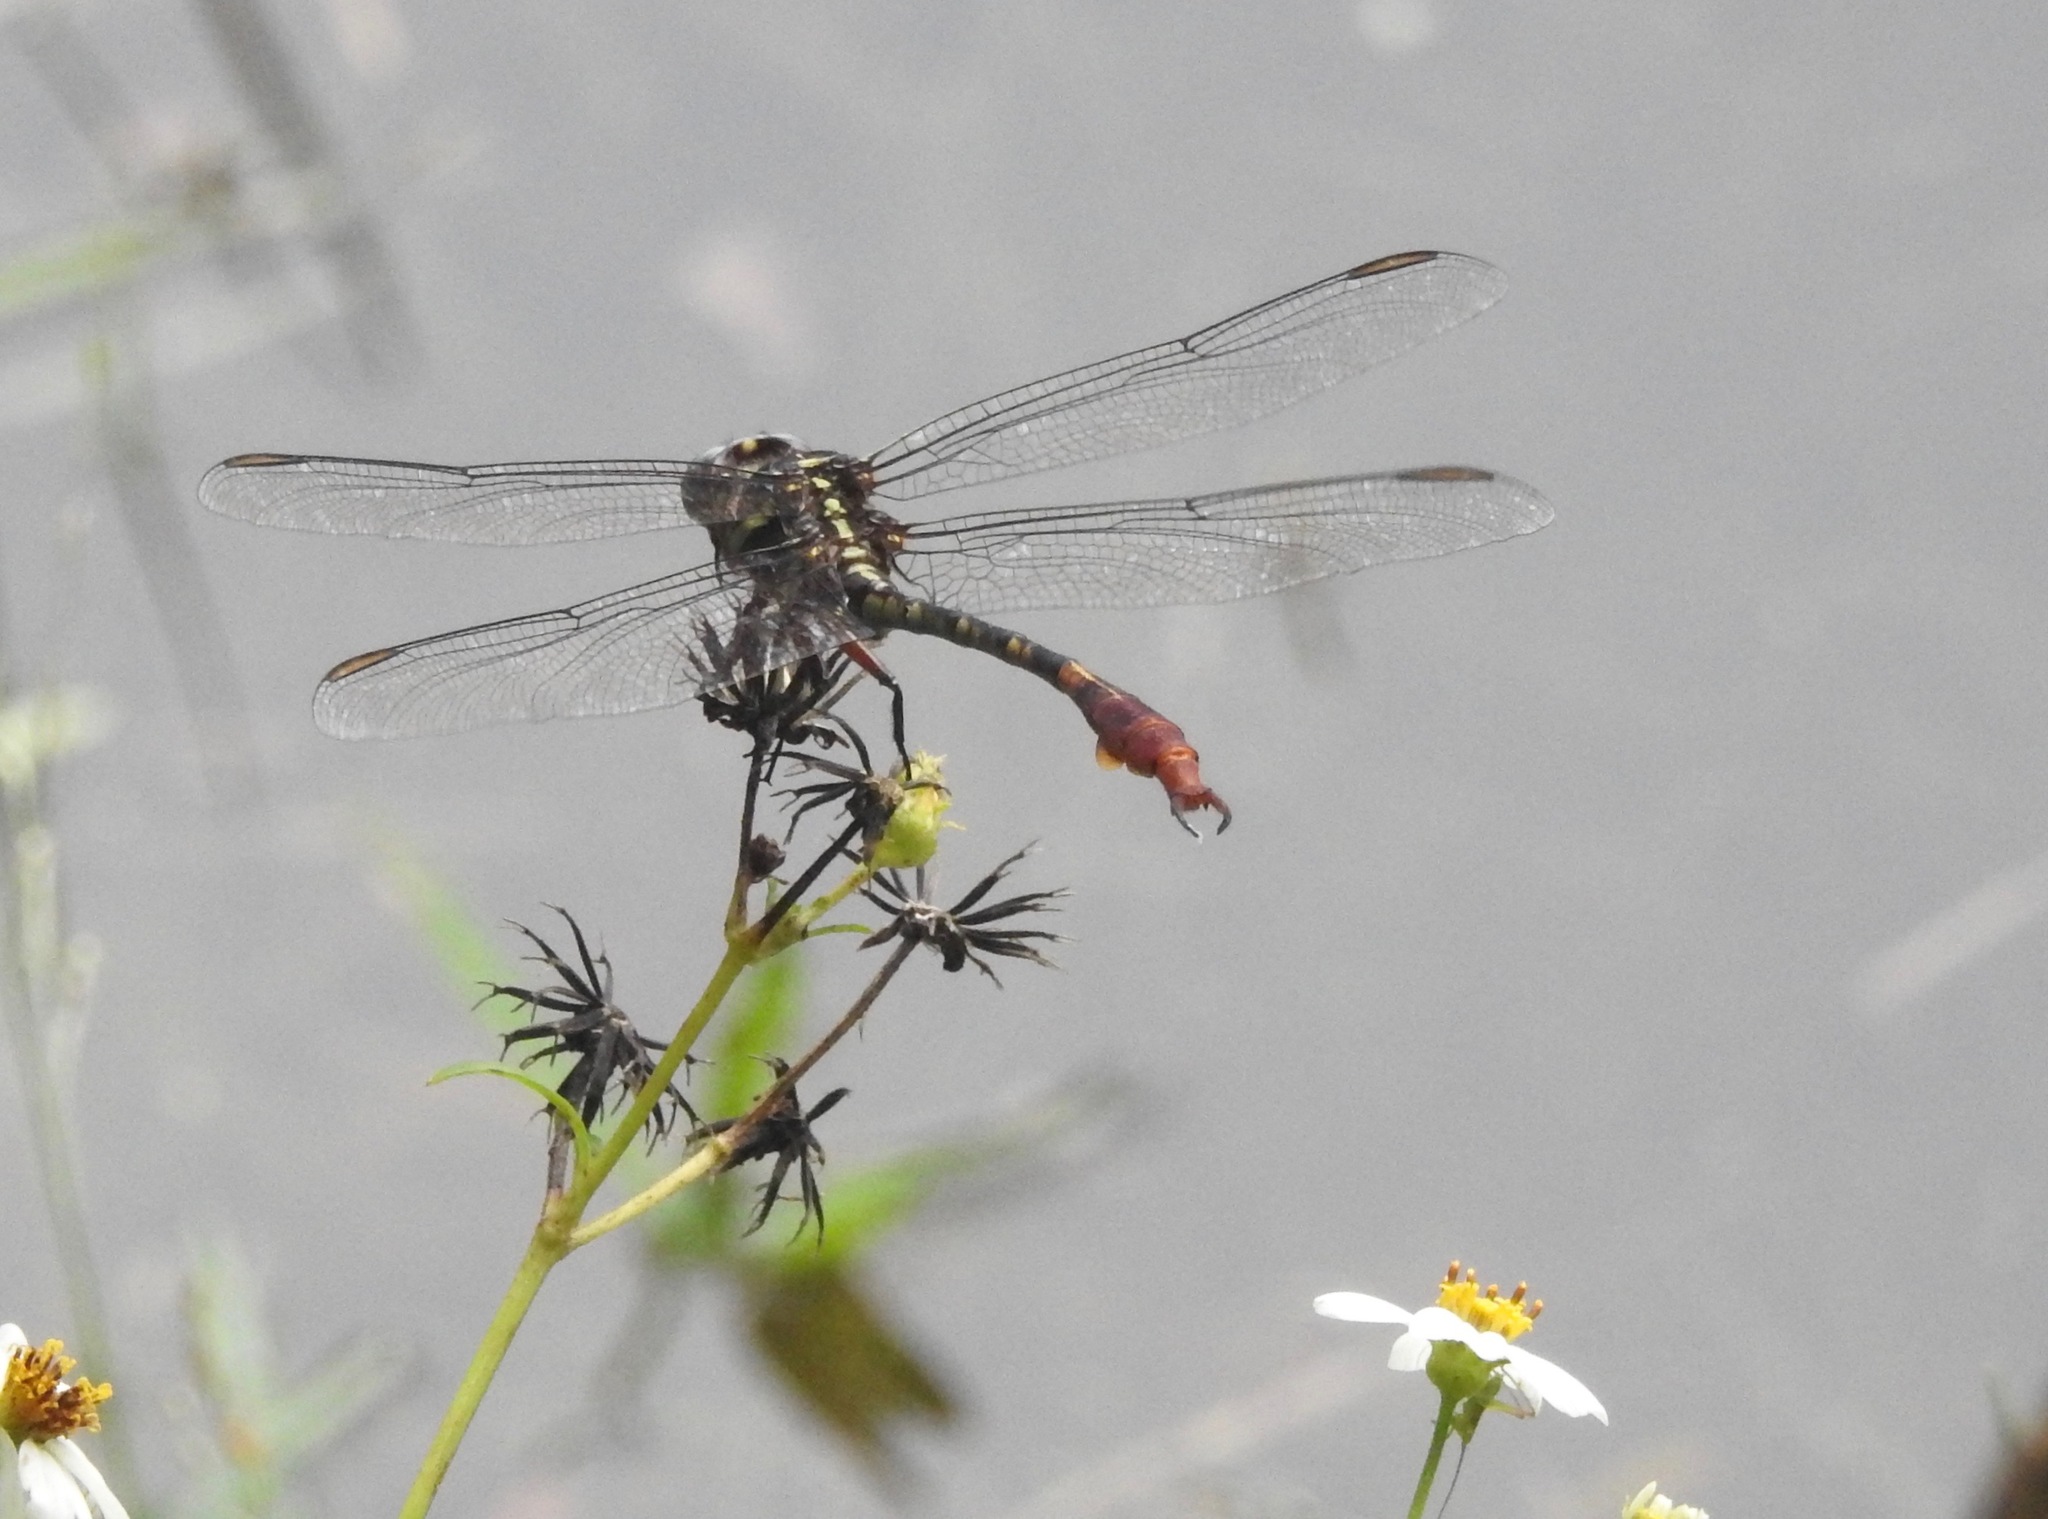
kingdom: Animalia
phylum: Arthropoda
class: Insecta
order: Odonata
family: Gomphidae
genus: Aphylla
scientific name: Aphylla williamsoni
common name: Two-striped forceptail
